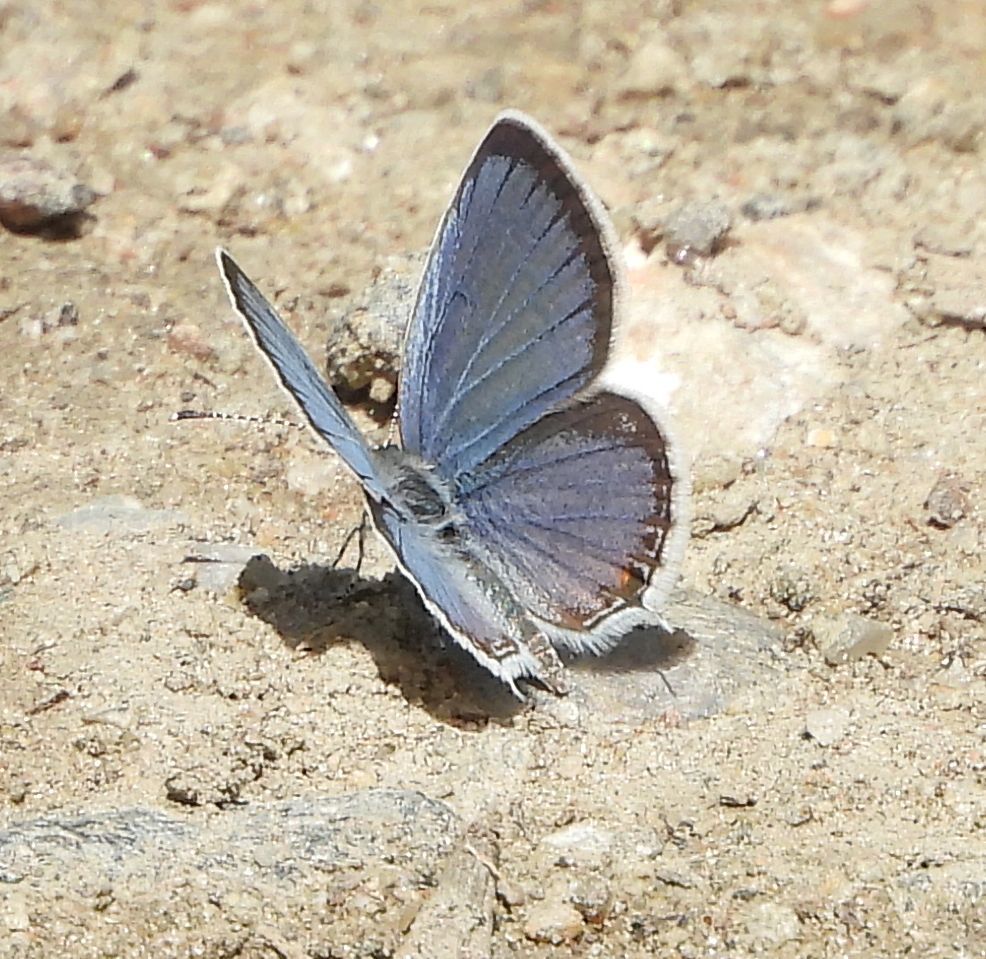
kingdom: Animalia
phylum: Arthropoda
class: Insecta
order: Lepidoptera
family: Lycaenidae
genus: Elkalyce
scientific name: Elkalyce comyntas
